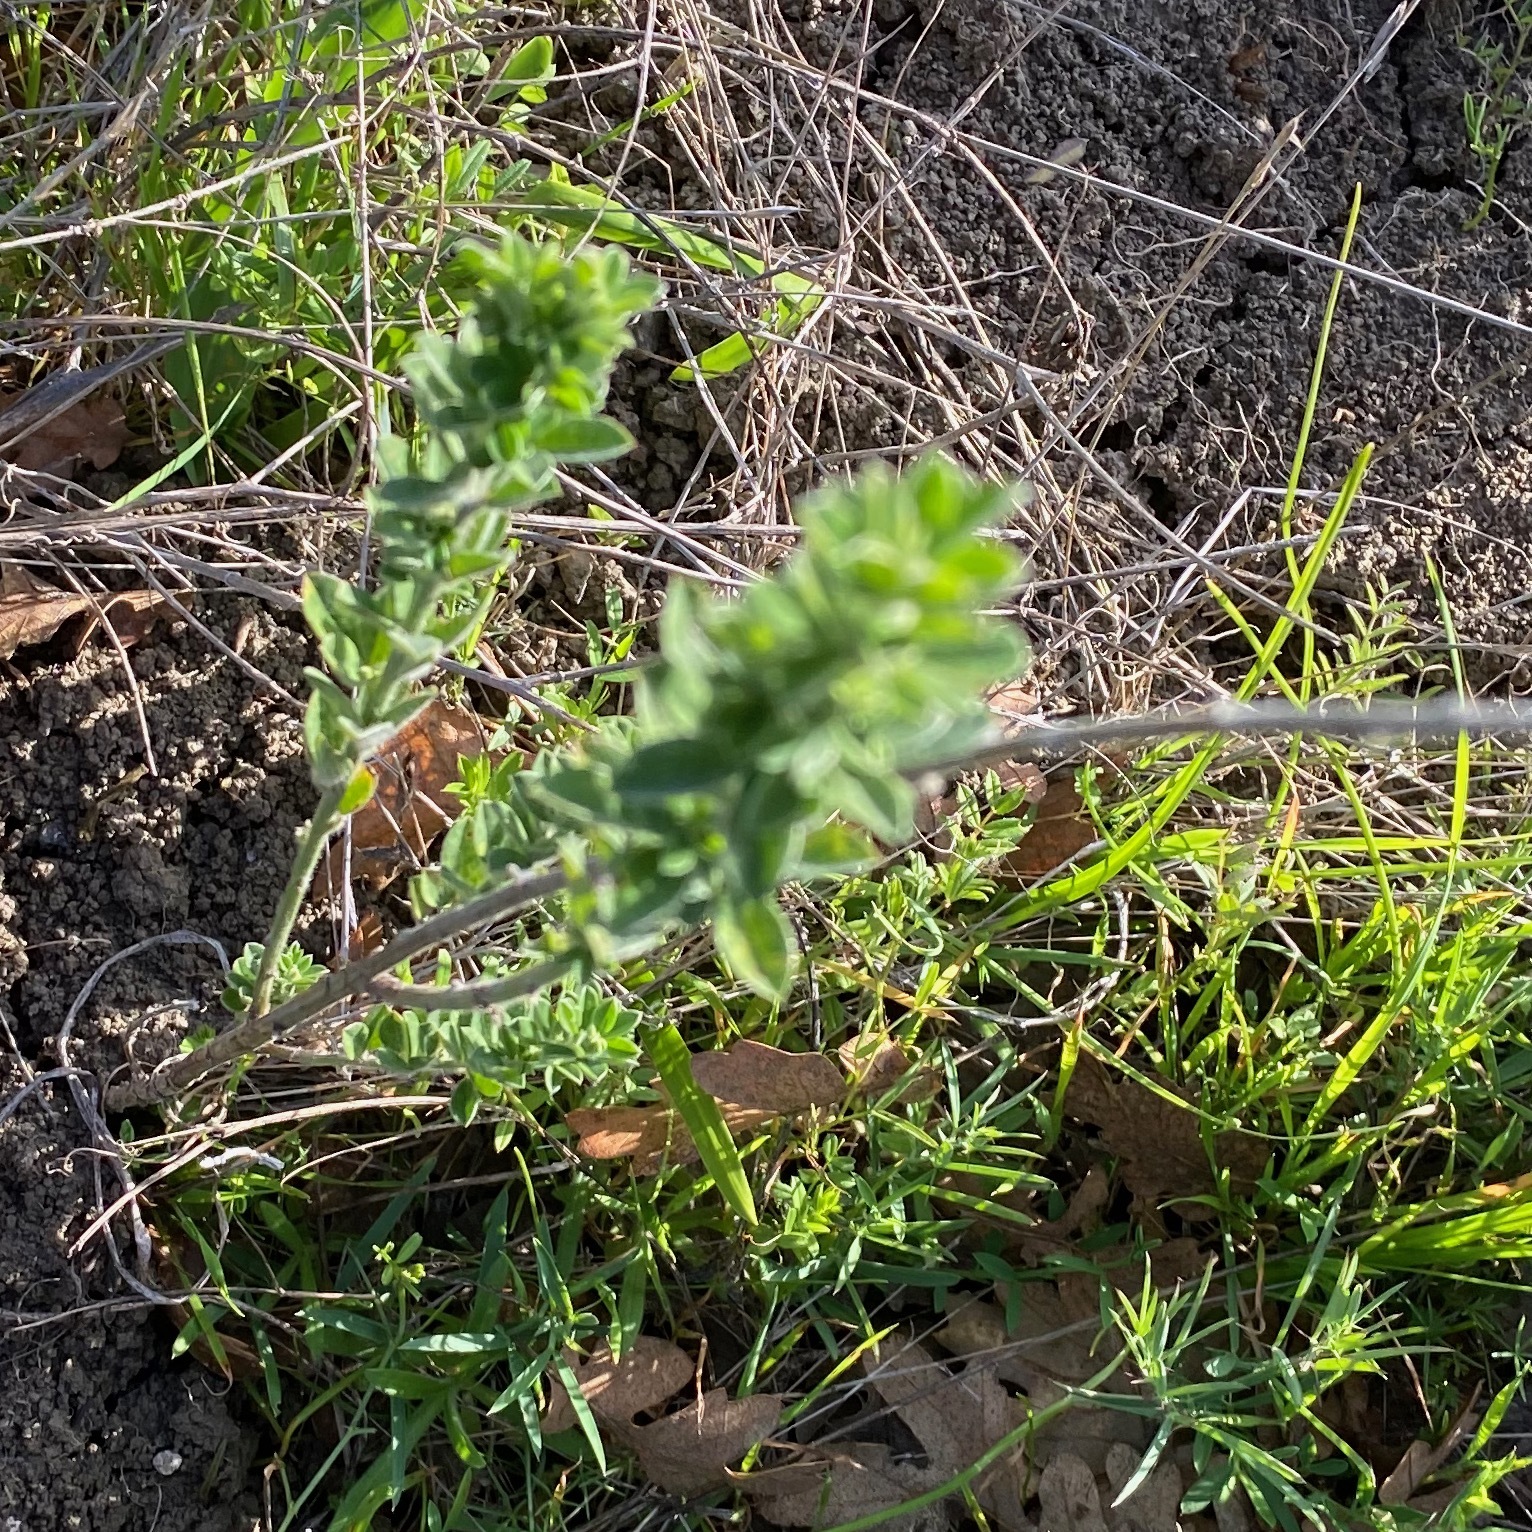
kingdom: Plantae
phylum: Tracheophyta
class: Magnoliopsida
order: Fabales
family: Fabaceae
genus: Genista
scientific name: Genista monspessulana
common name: Montpellier broom
